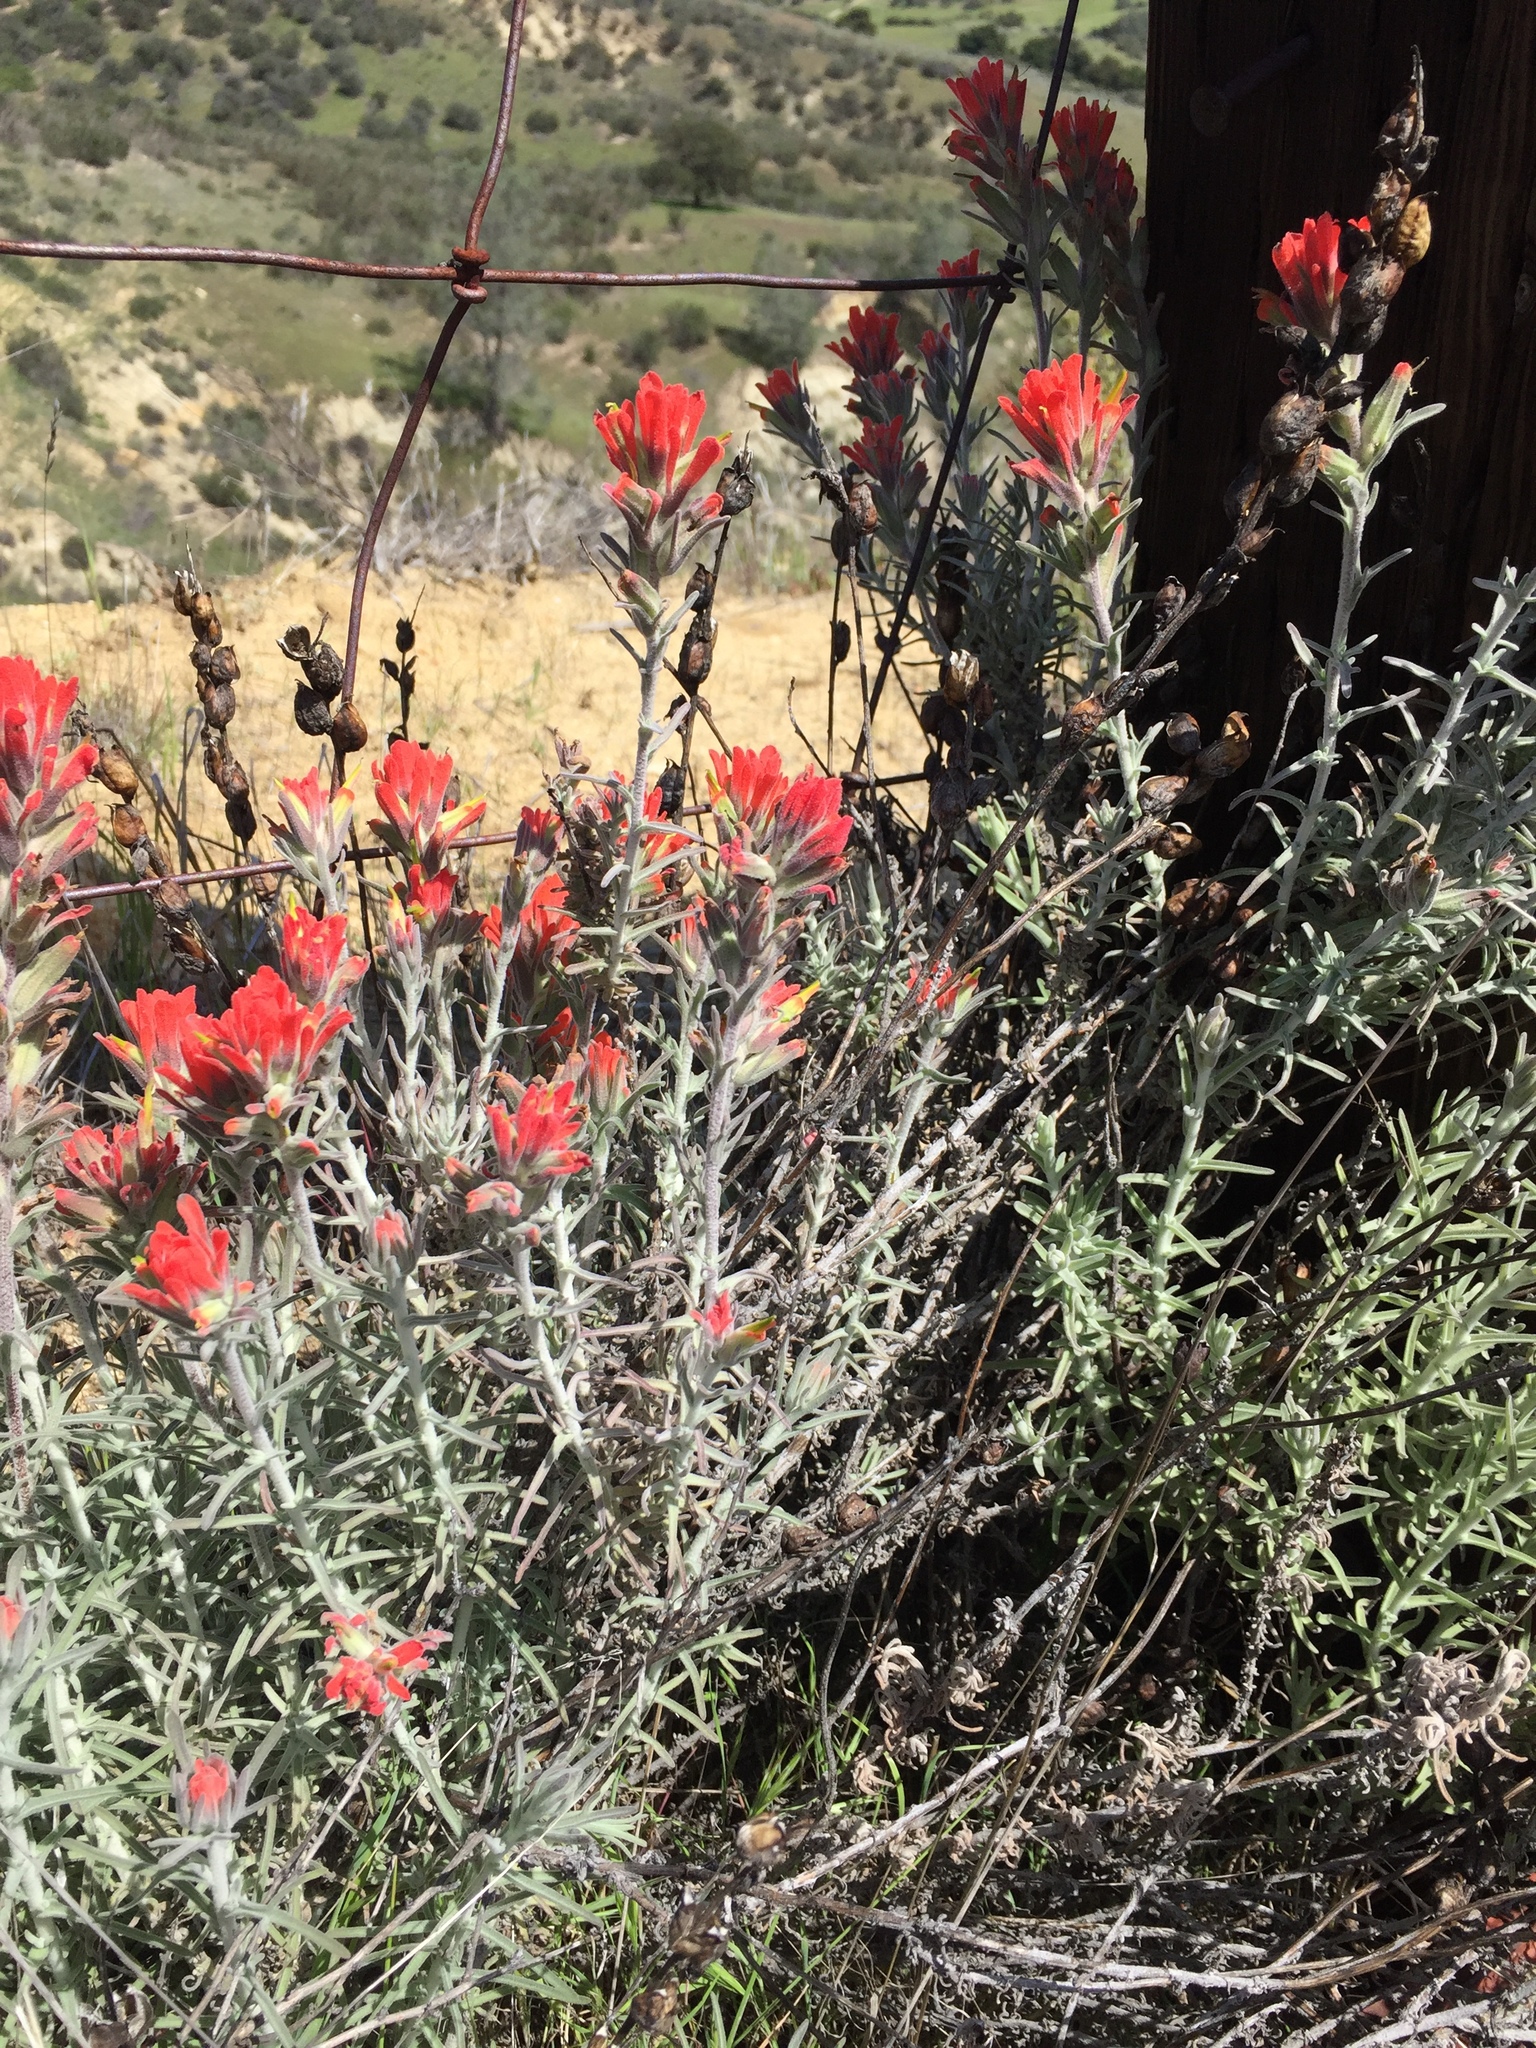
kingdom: Plantae
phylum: Tracheophyta
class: Magnoliopsida
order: Lamiales
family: Orobanchaceae
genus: Castilleja
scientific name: Castilleja foliolosa
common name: Woolly indian paintbrush
